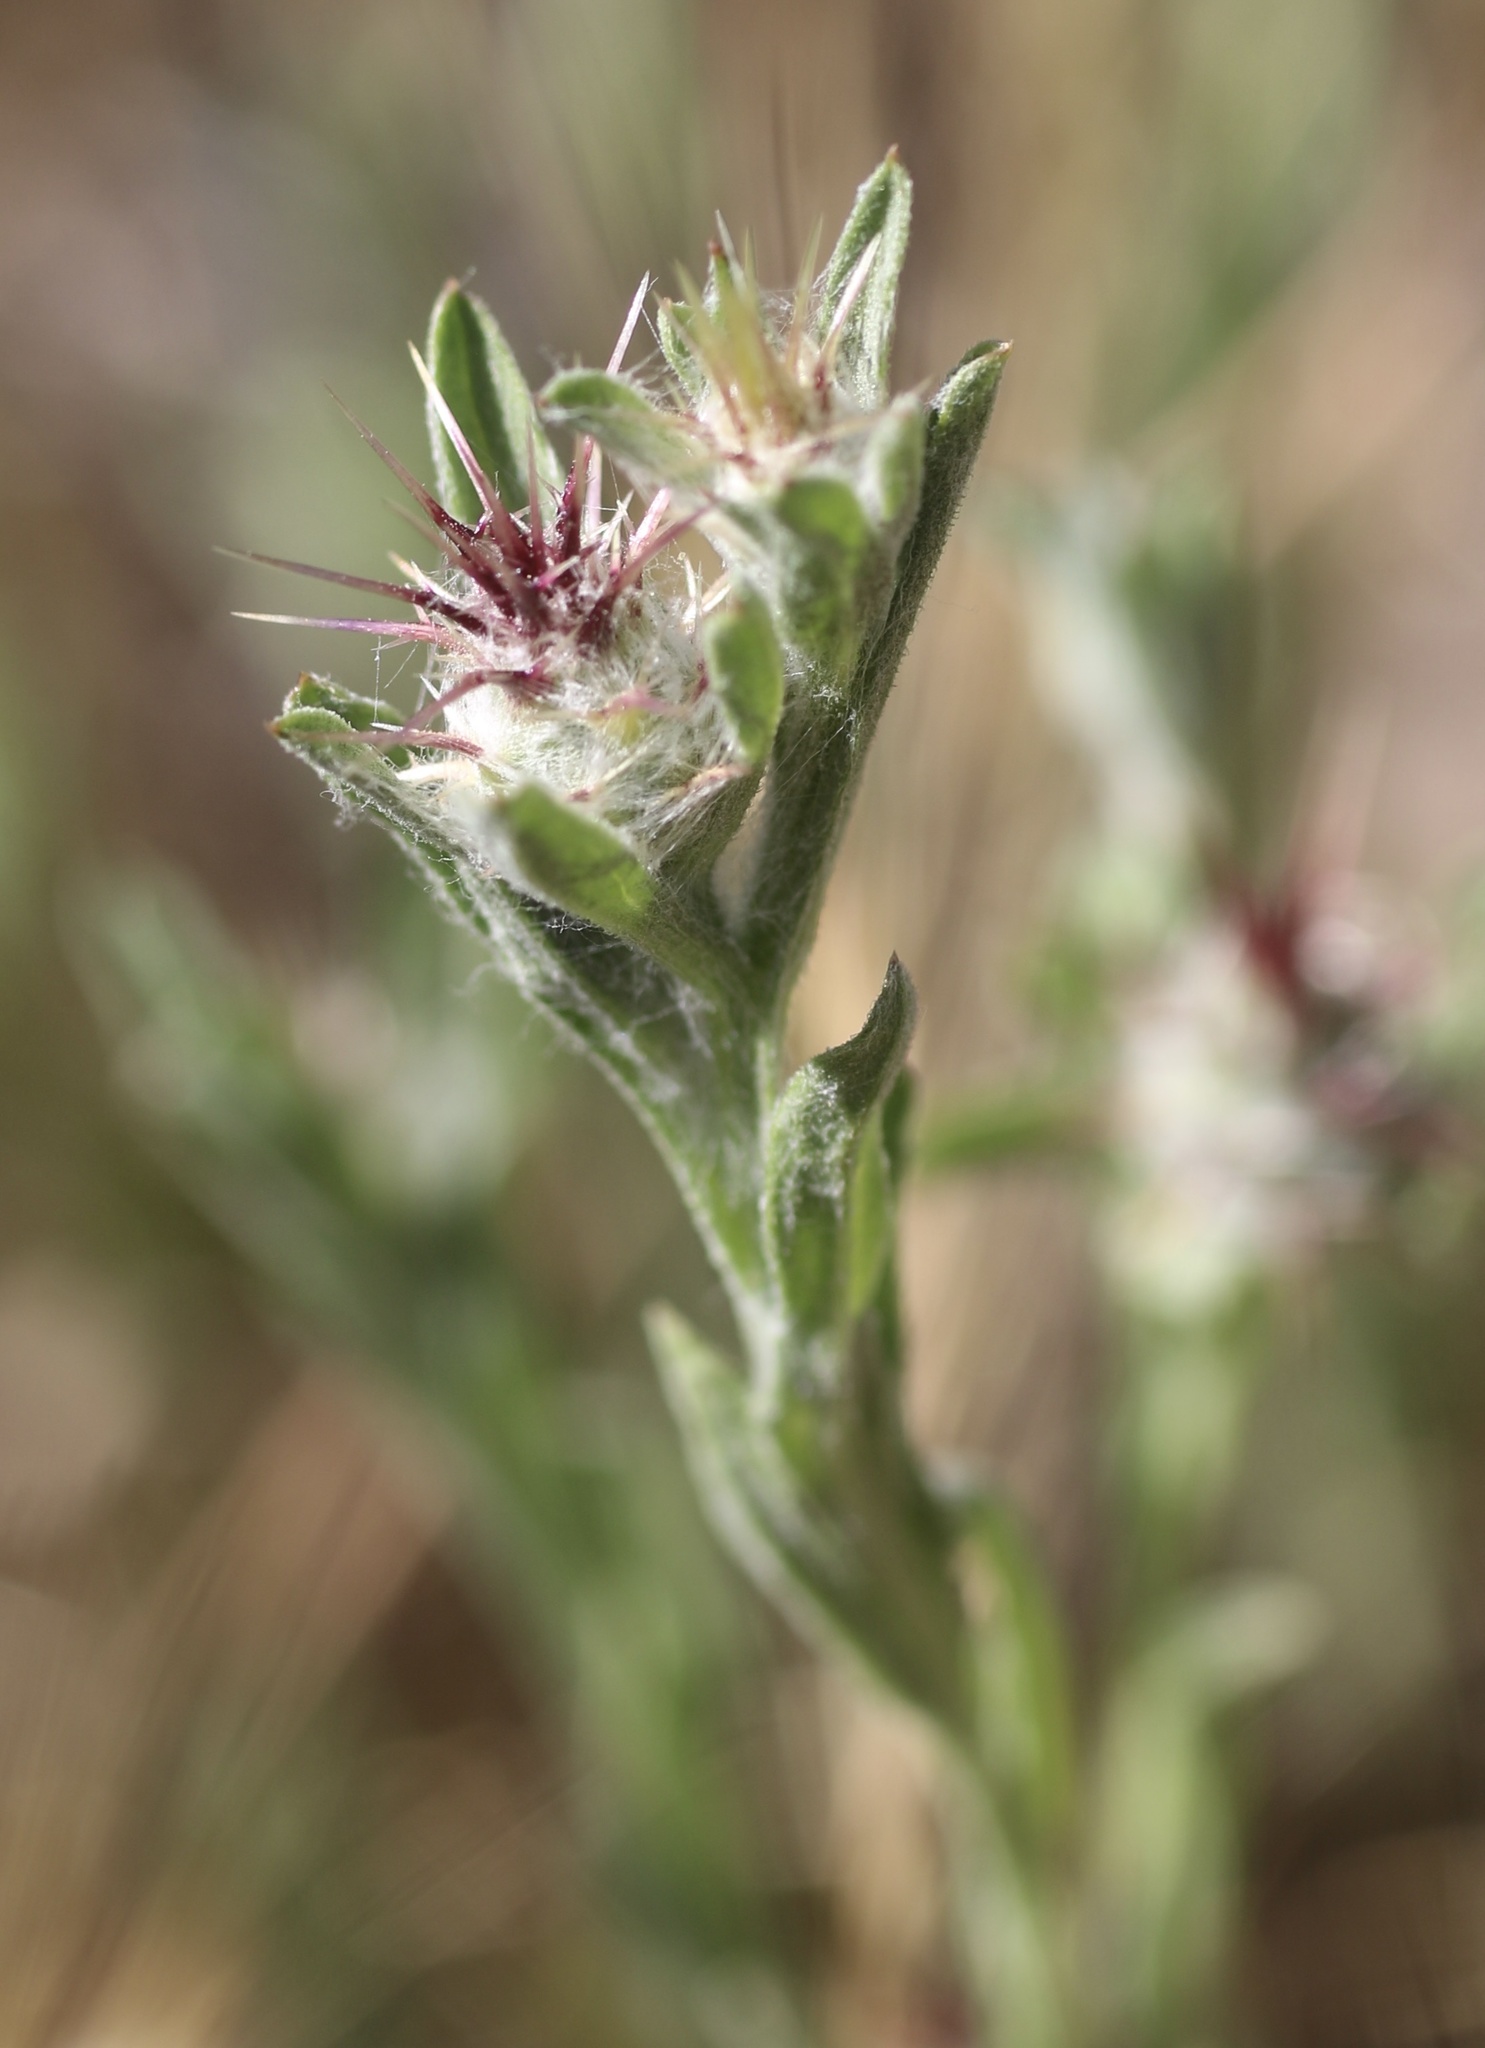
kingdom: Plantae
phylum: Tracheophyta
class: Magnoliopsida
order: Asterales
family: Asteraceae
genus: Centaurea
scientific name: Centaurea melitensis
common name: Maltese star-thistle
